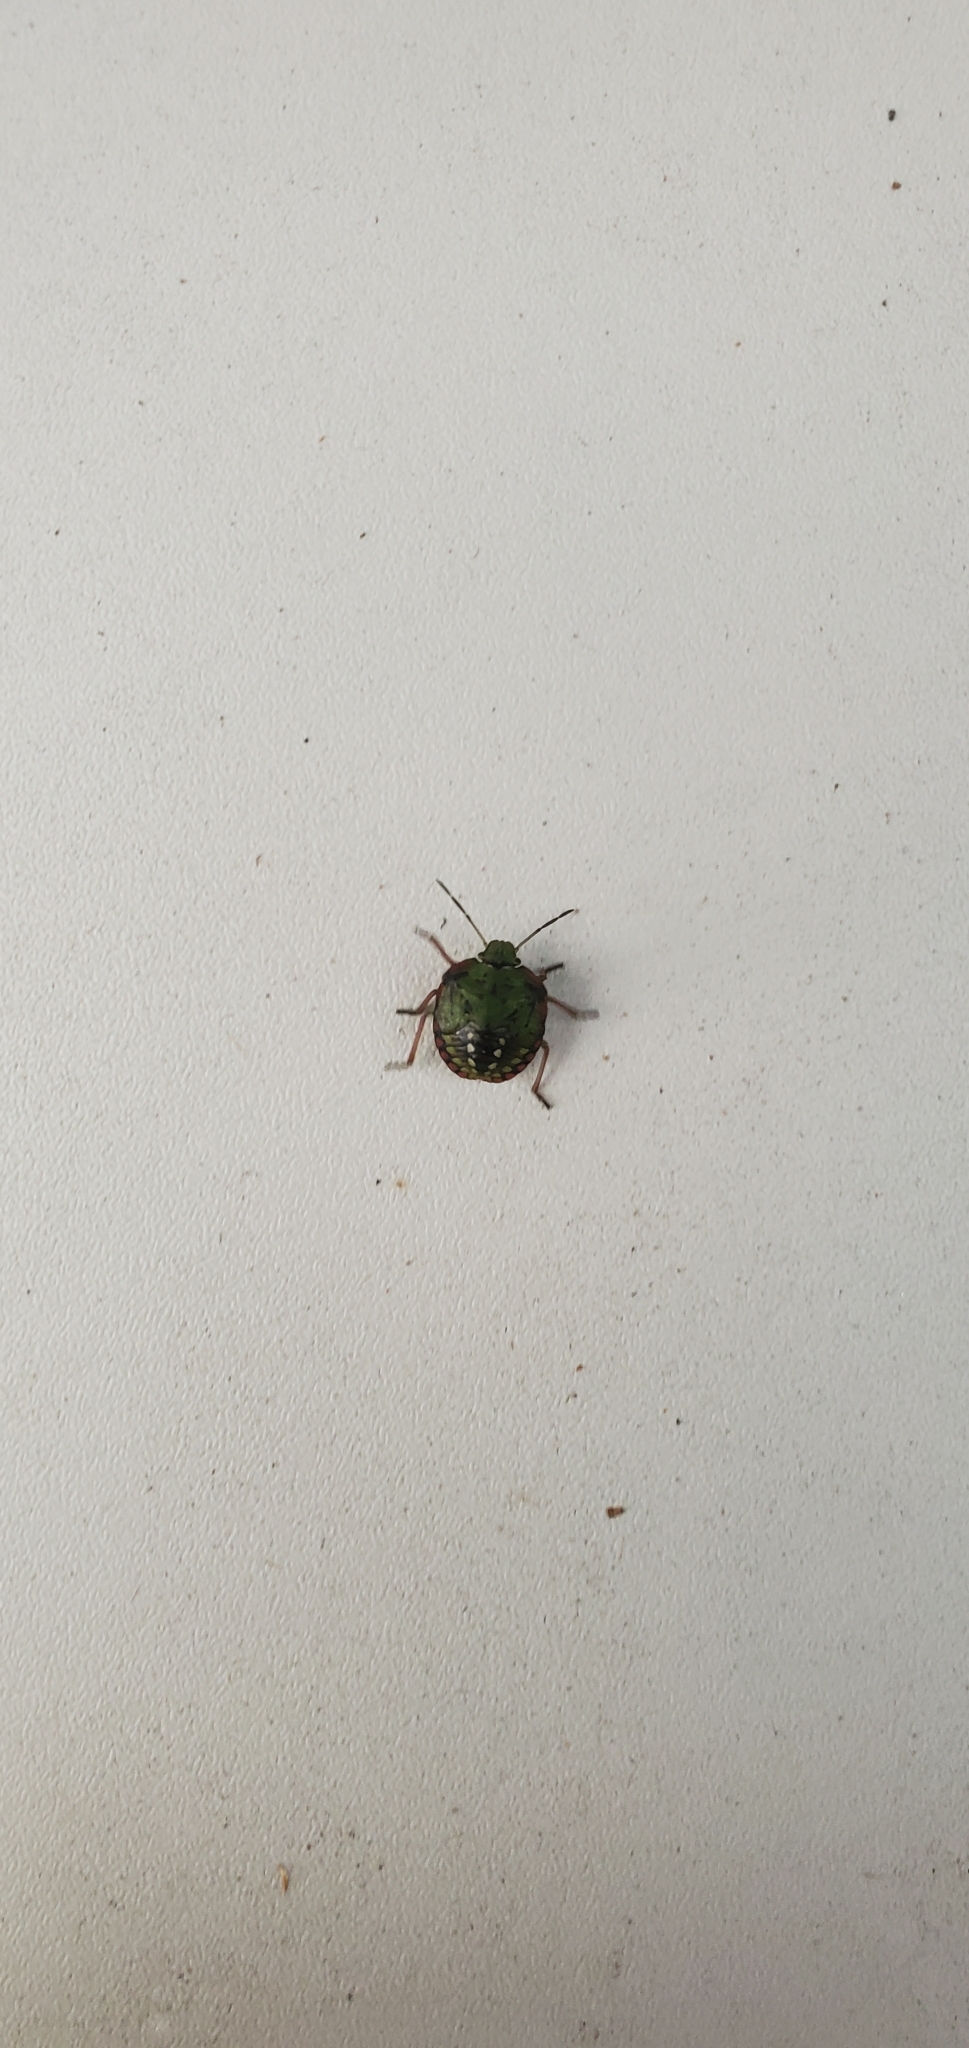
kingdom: Animalia
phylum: Arthropoda
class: Insecta
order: Hemiptera
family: Pentatomidae
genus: Nezara
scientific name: Nezara viridula
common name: Southern green stink bug
